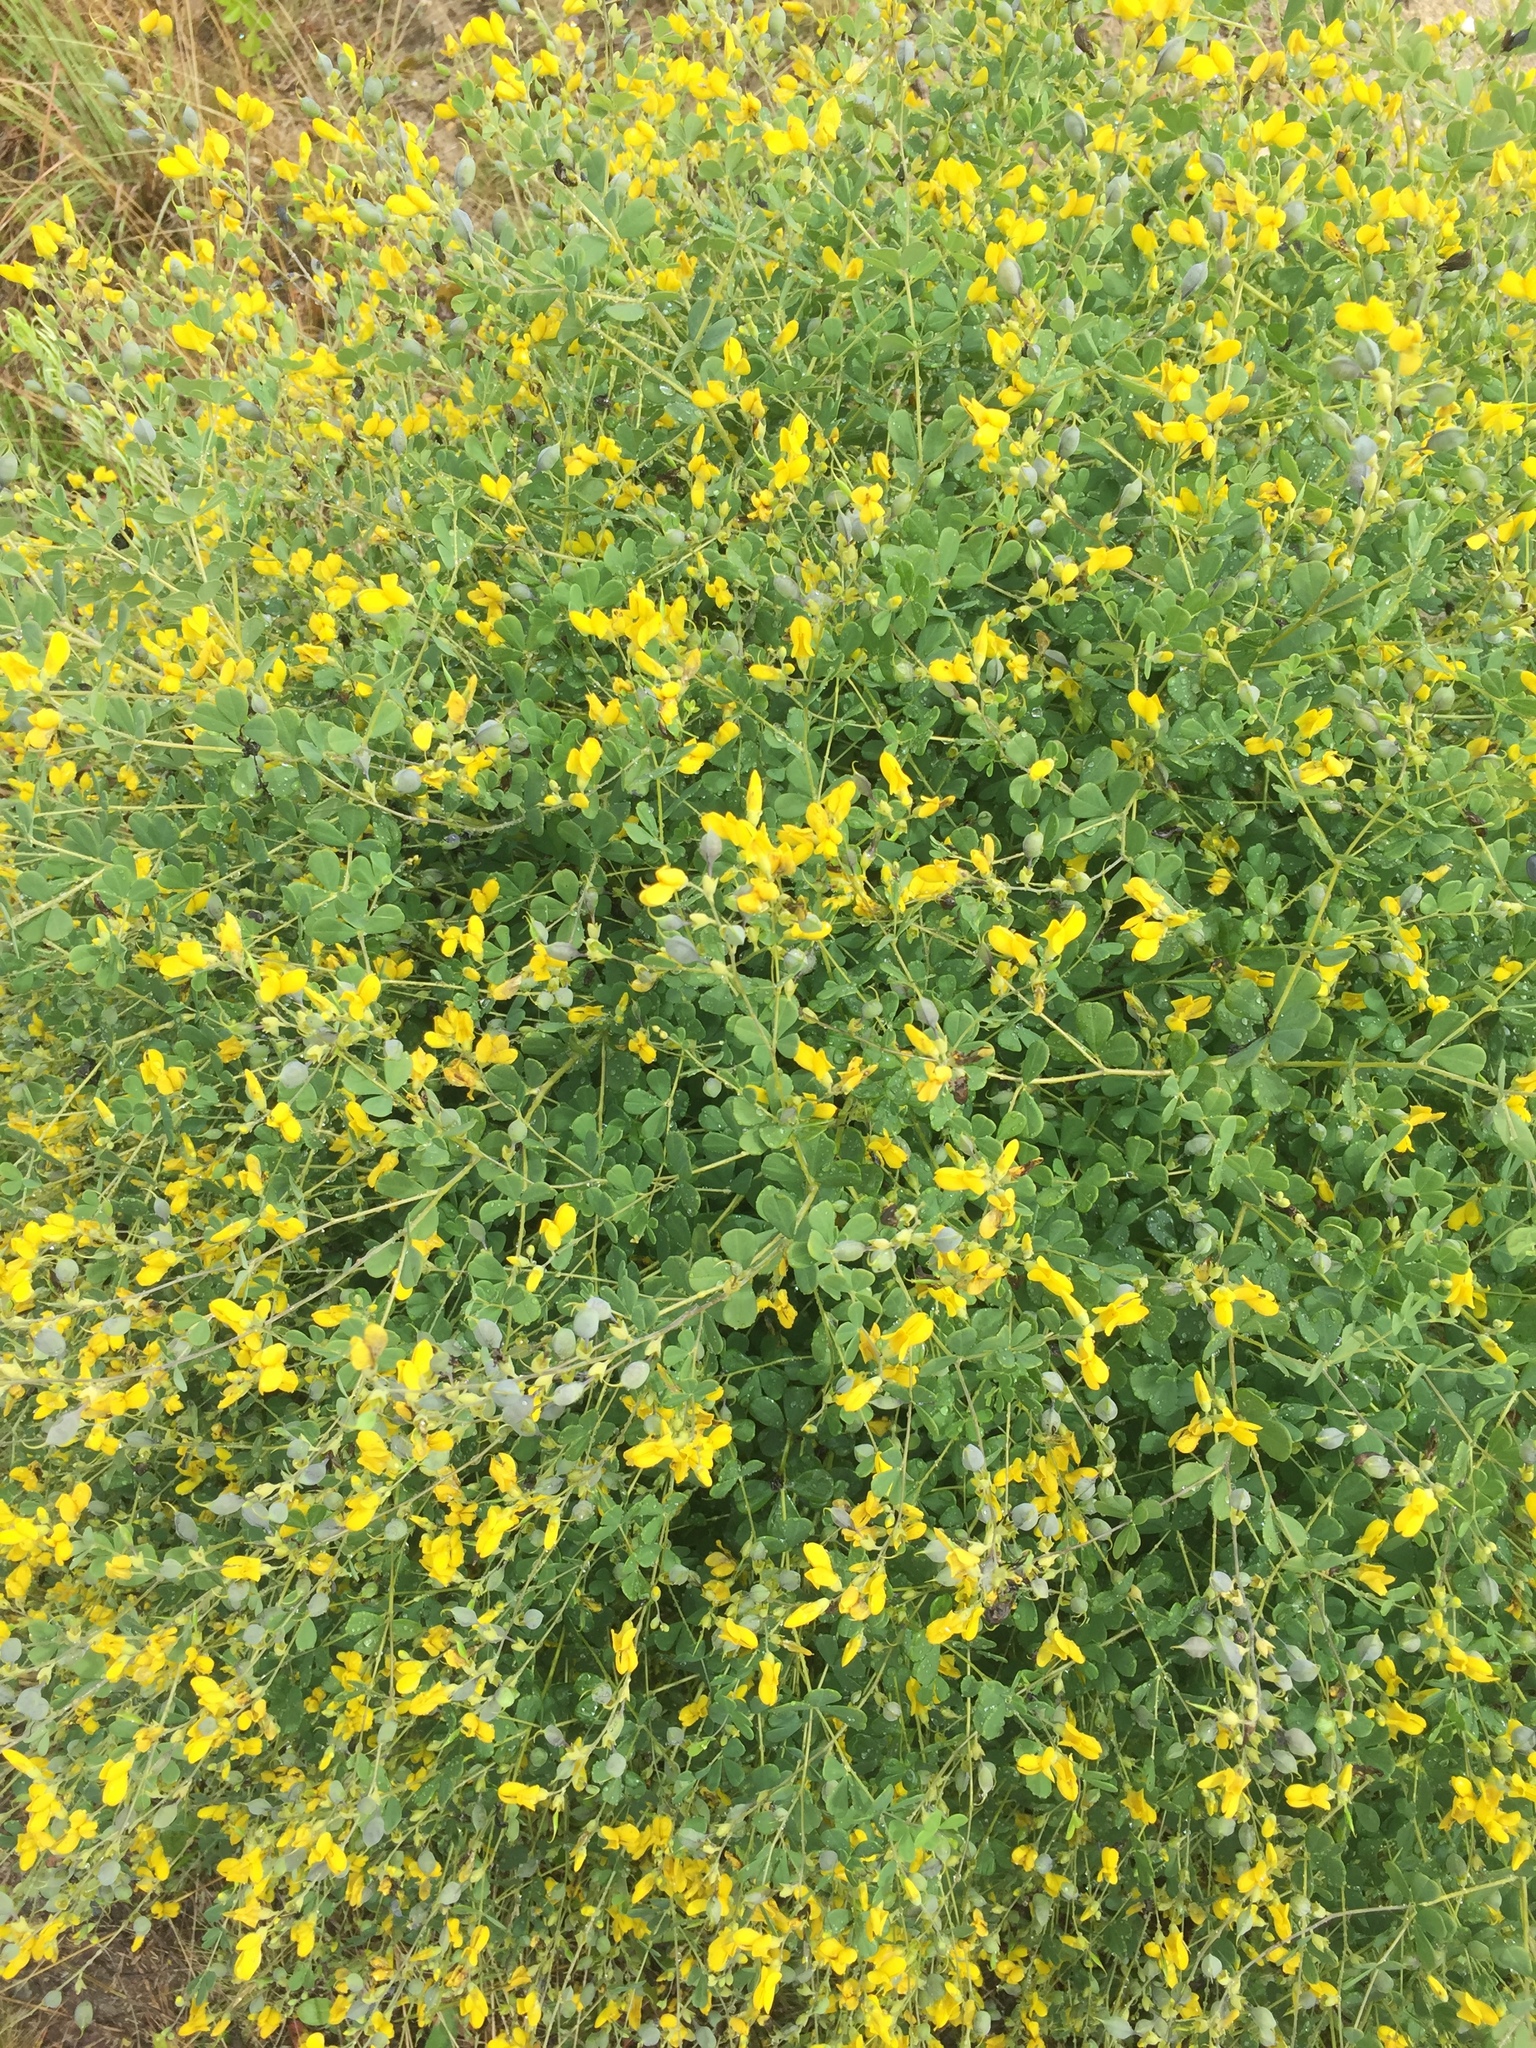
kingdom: Plantae
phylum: Tracheophyta
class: Magnoliopsida
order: Fabales
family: Fabaceae
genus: Baptisia
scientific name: Baptisia tinctoria
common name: Wild indigo
